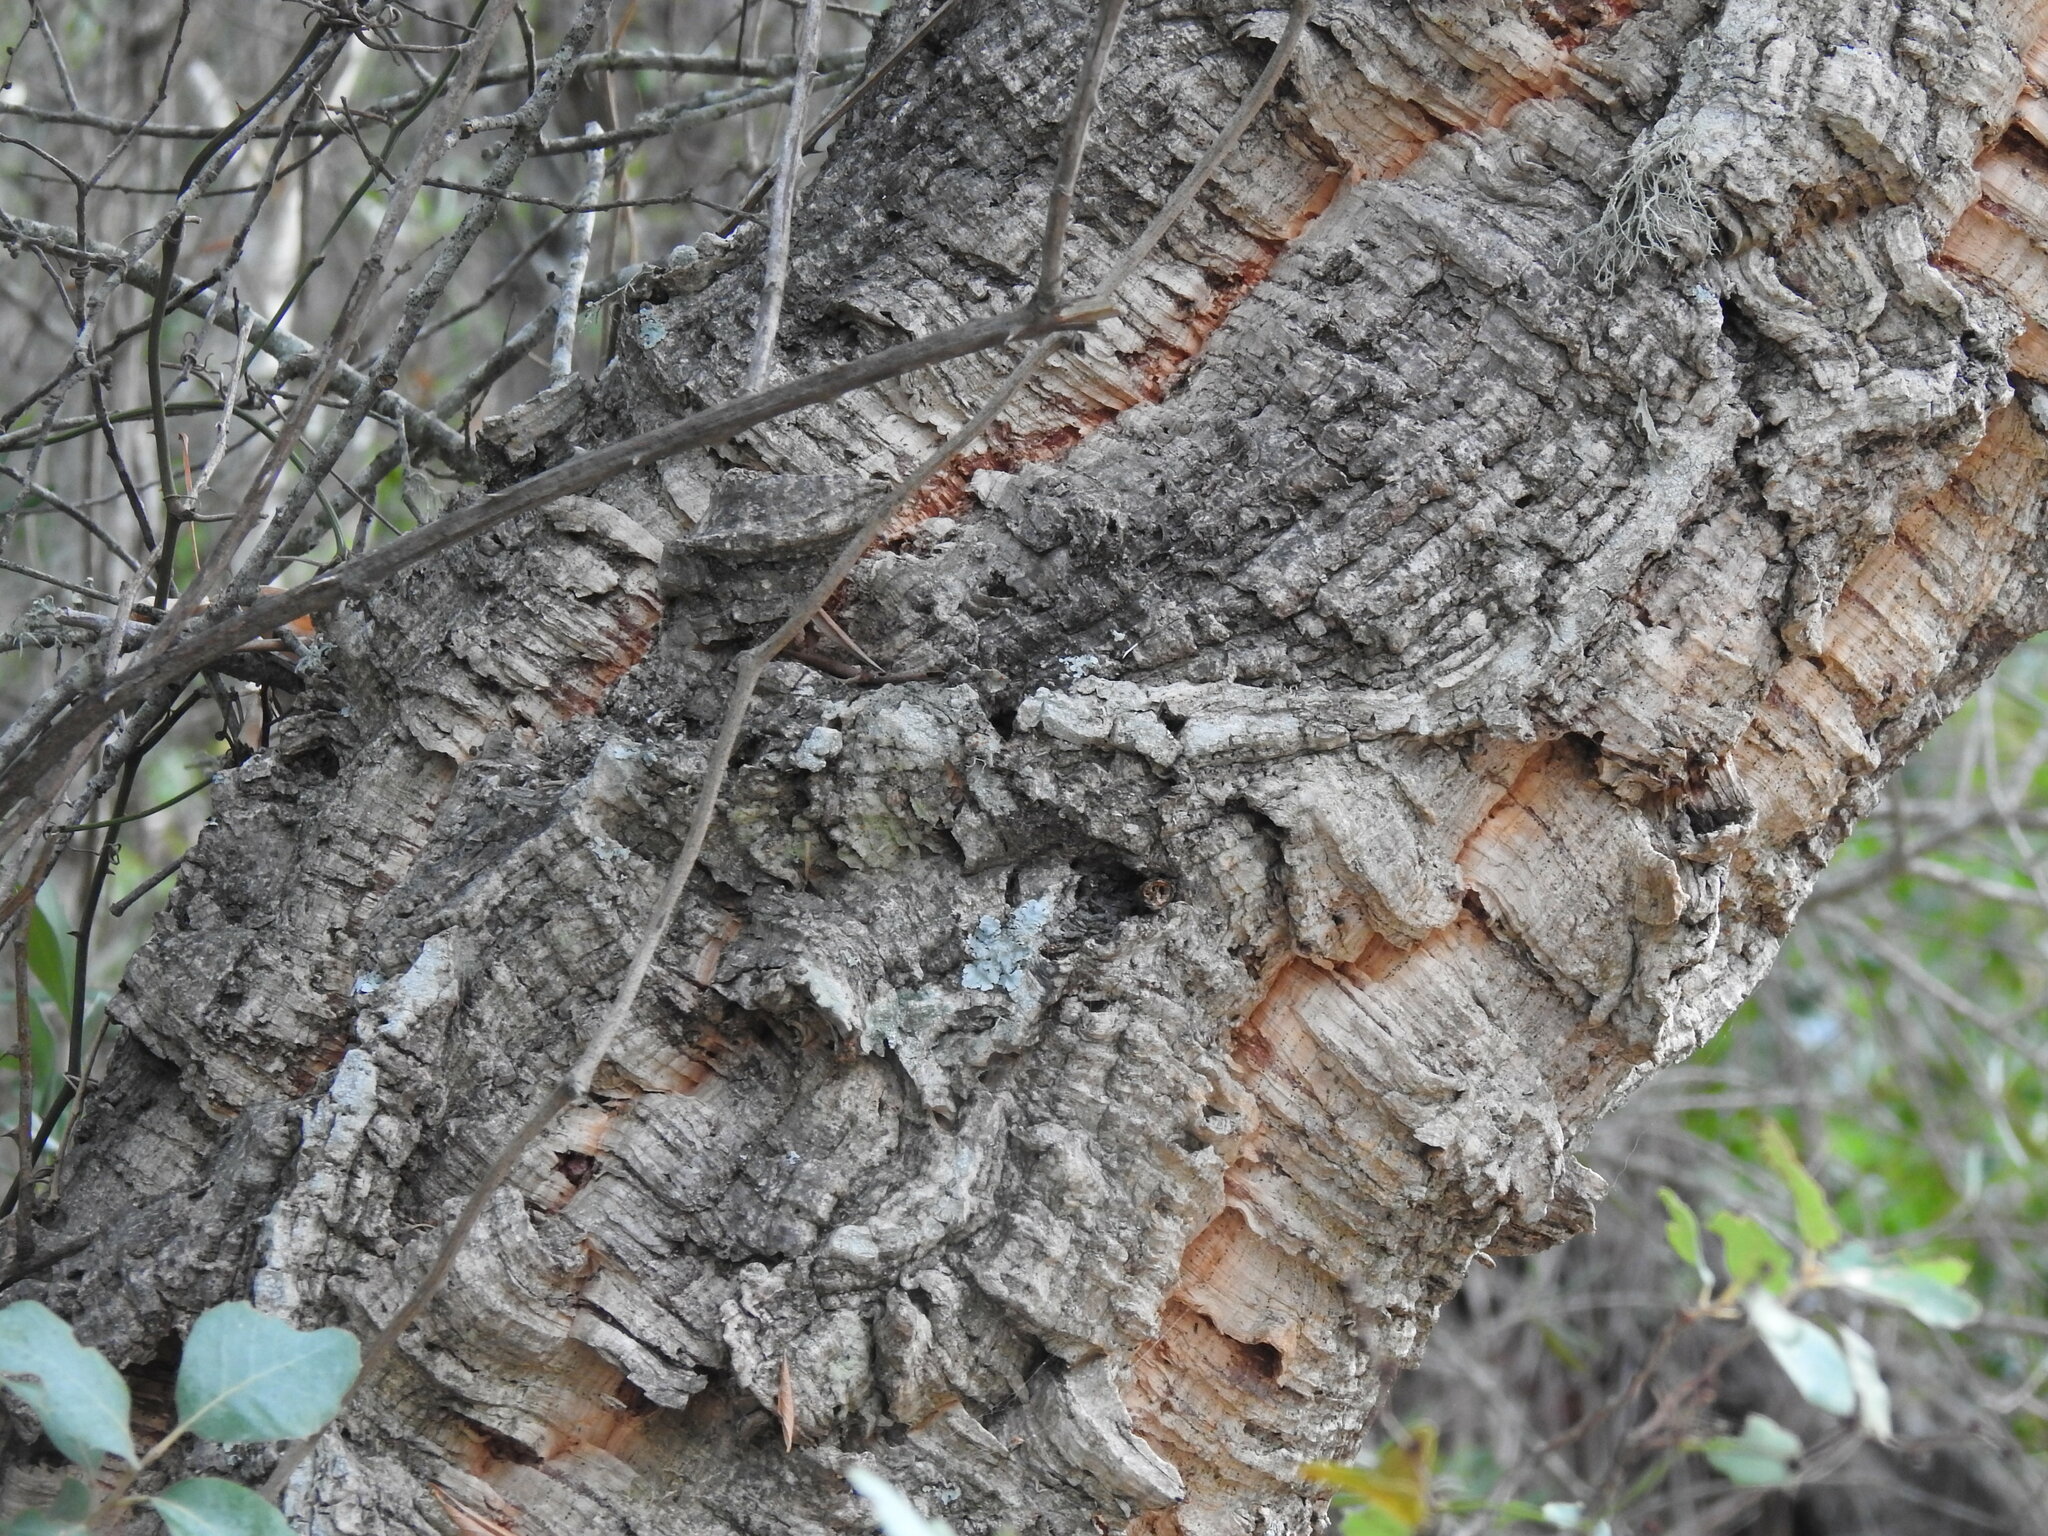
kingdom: Plantae
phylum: Tracheophyta
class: Magnoliopsida
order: Fagales
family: Fagaceae
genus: Quercus
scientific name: Quercus suber
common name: Cork oak
